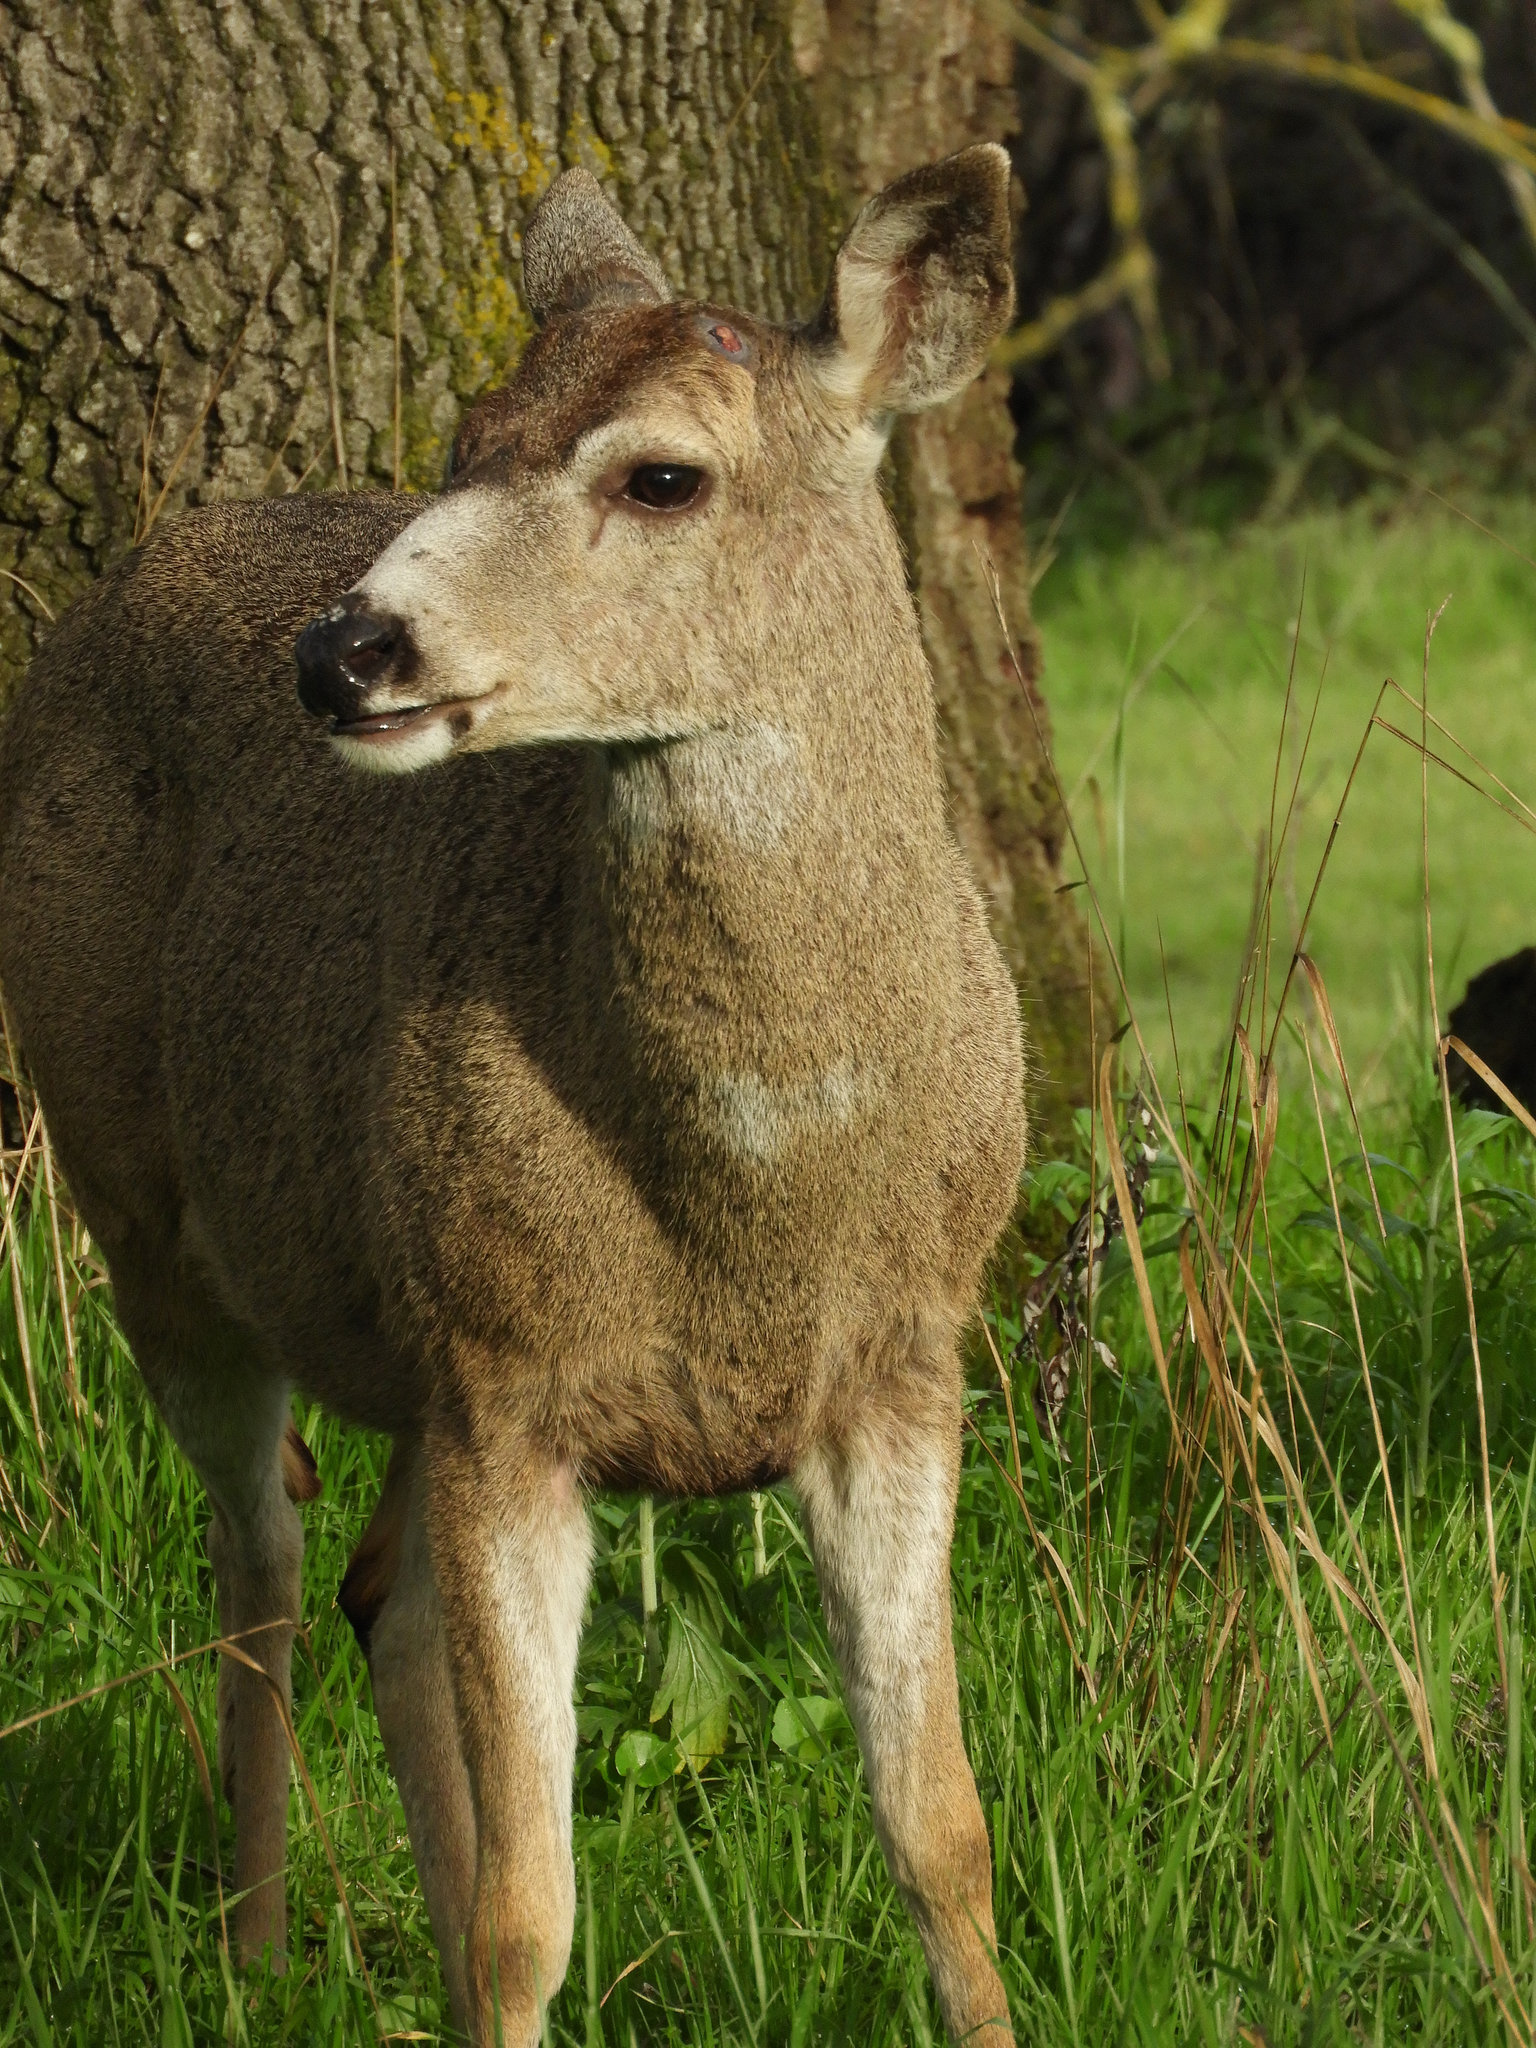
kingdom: Animalia
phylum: Chordata
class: Mammalia
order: Artiodactyla
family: Cervidae
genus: Odocoileus
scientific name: Odocoileus hemionus
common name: Mule deer
